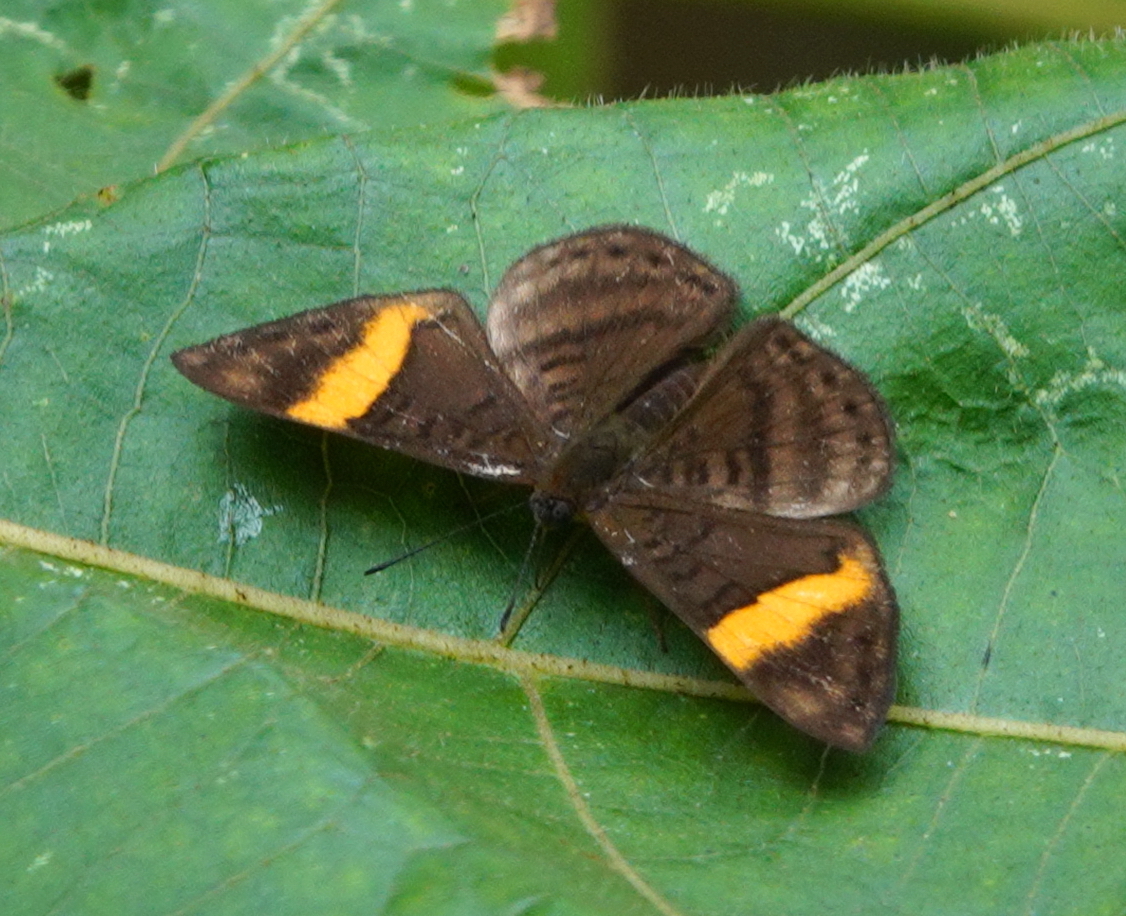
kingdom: Animalia
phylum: Arthropoda
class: Insecta
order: Lepidoptera
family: Lycaenidae
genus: Emesis
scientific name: Emesis cypria
